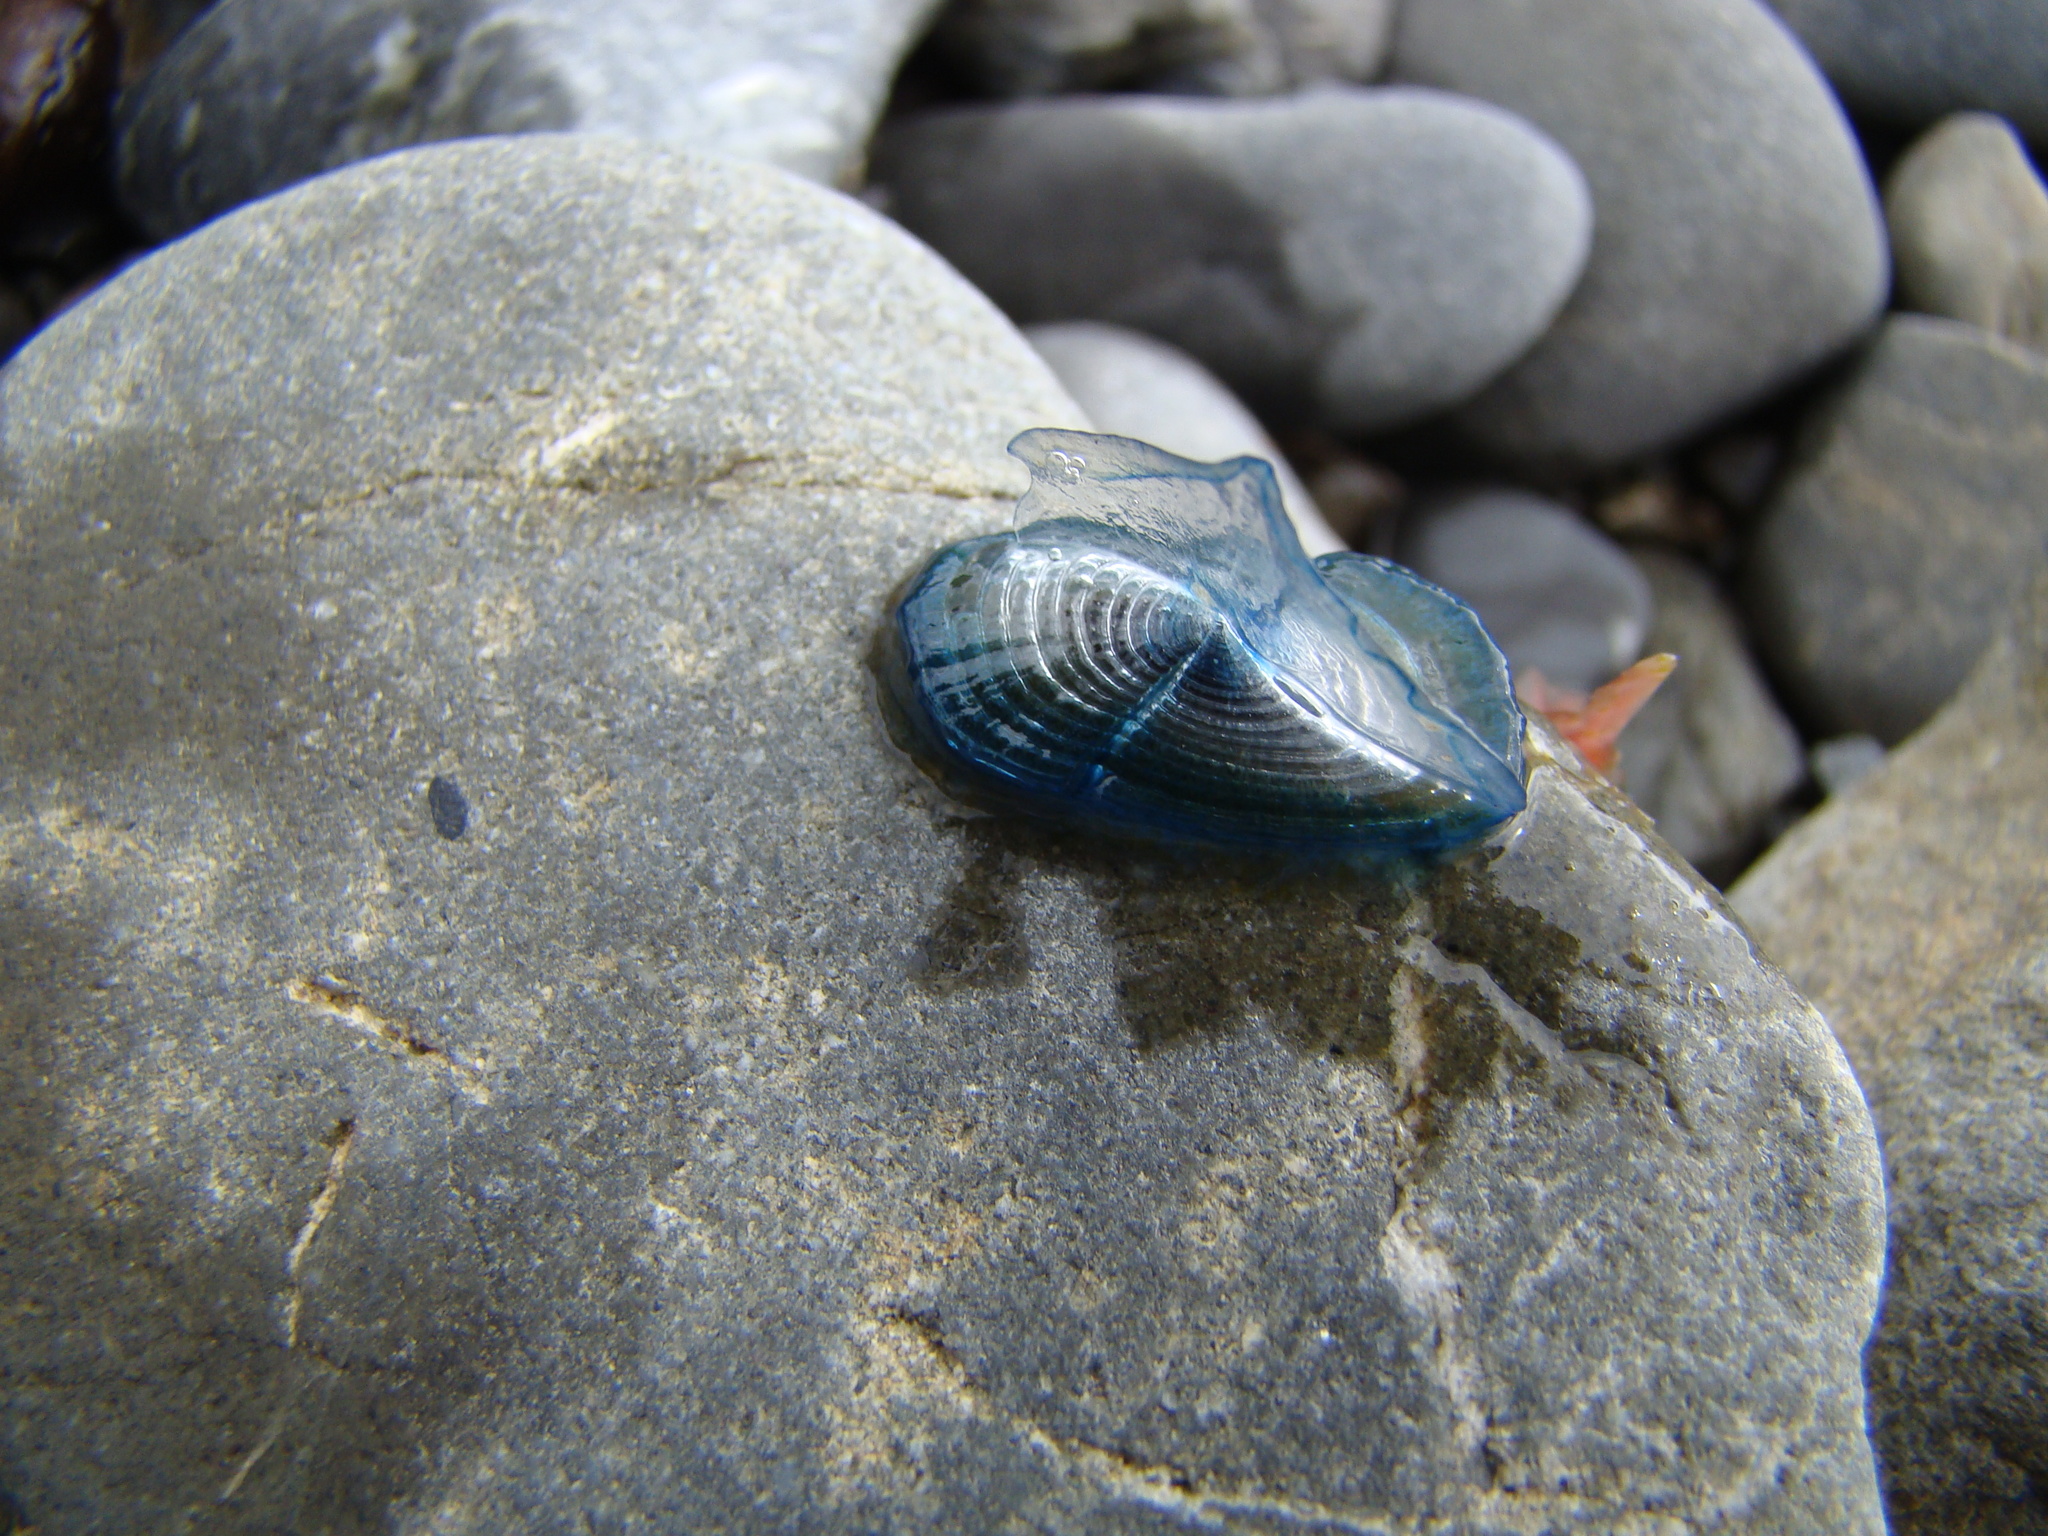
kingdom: Animalia
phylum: Cnidaria
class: Hydrozoa
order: Anthoathecata
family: Porpitidae
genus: Velella
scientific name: Velella velella
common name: By-the-wind-sailor
